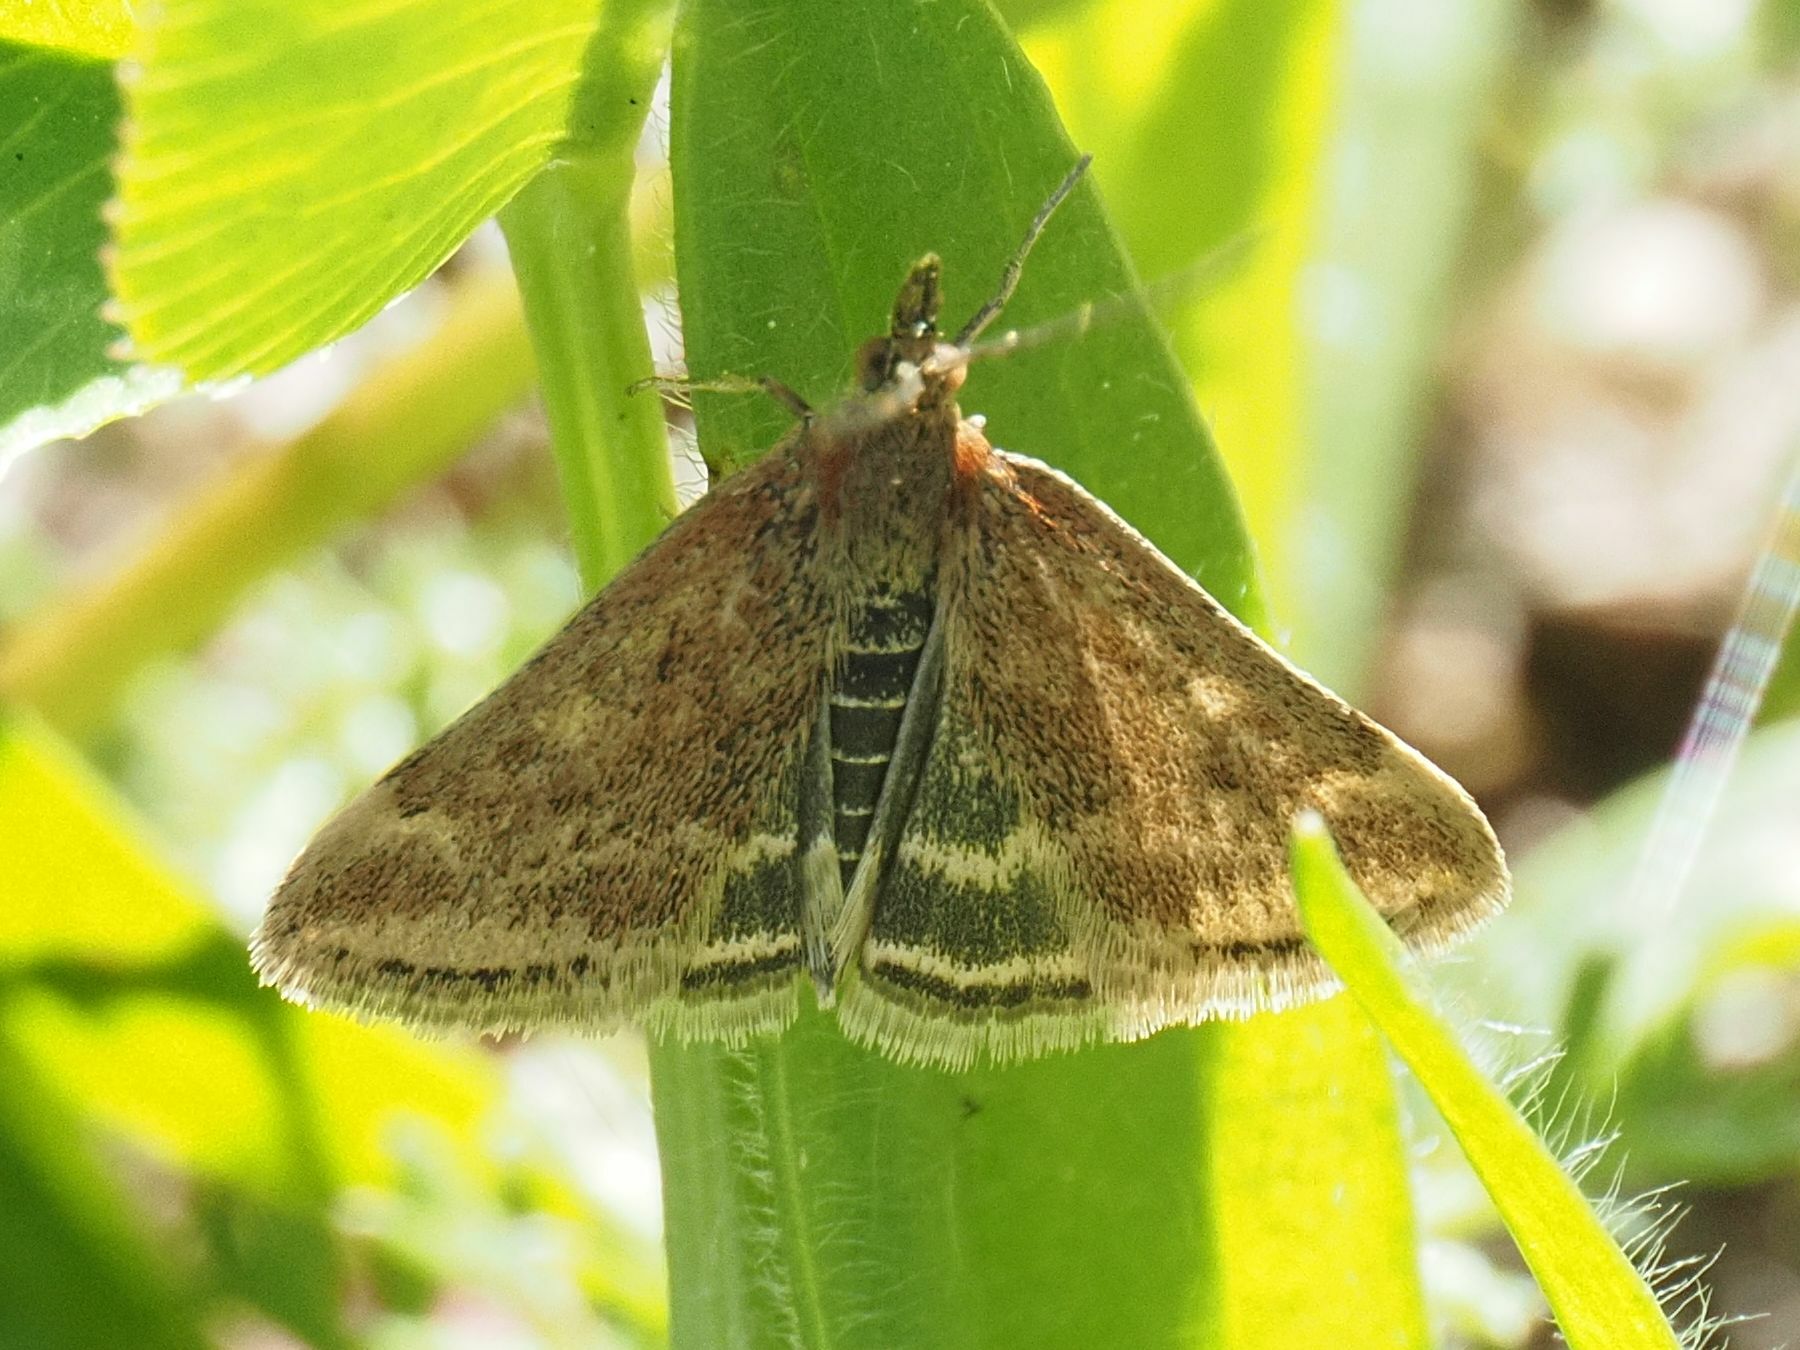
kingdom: Animalia
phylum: Arthropoda
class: Insecta
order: Lepidoptera
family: Crambidae
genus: Pyrausta
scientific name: Pyrausta despicata
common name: Straw-barred pearl
